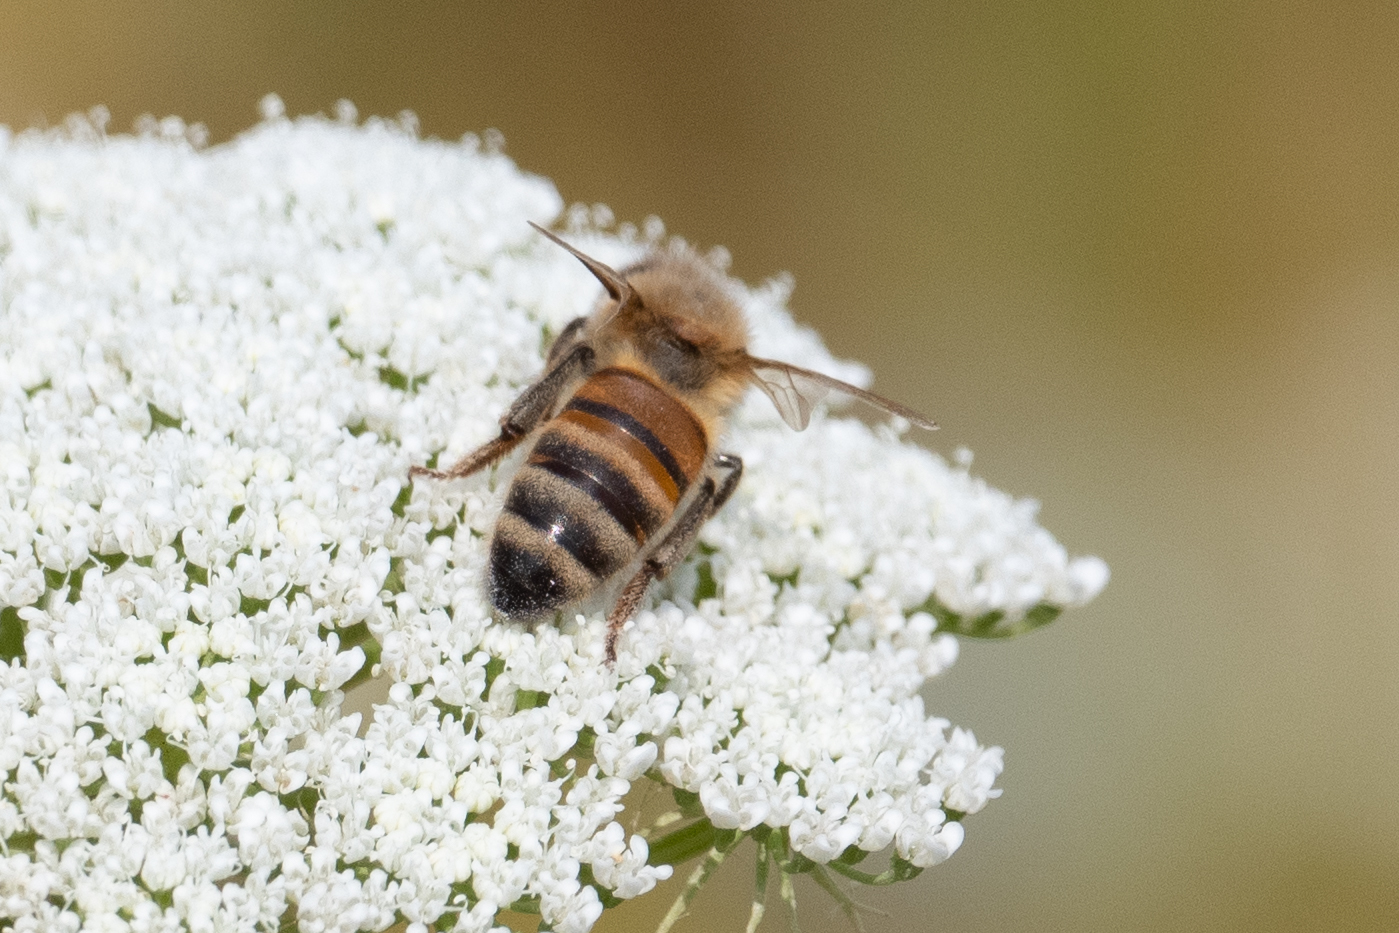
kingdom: Animalia
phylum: Arthropoda
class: Insecta
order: Hymenoptera
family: Apidae
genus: Apis
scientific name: Apis mellifera
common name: Honey bee
